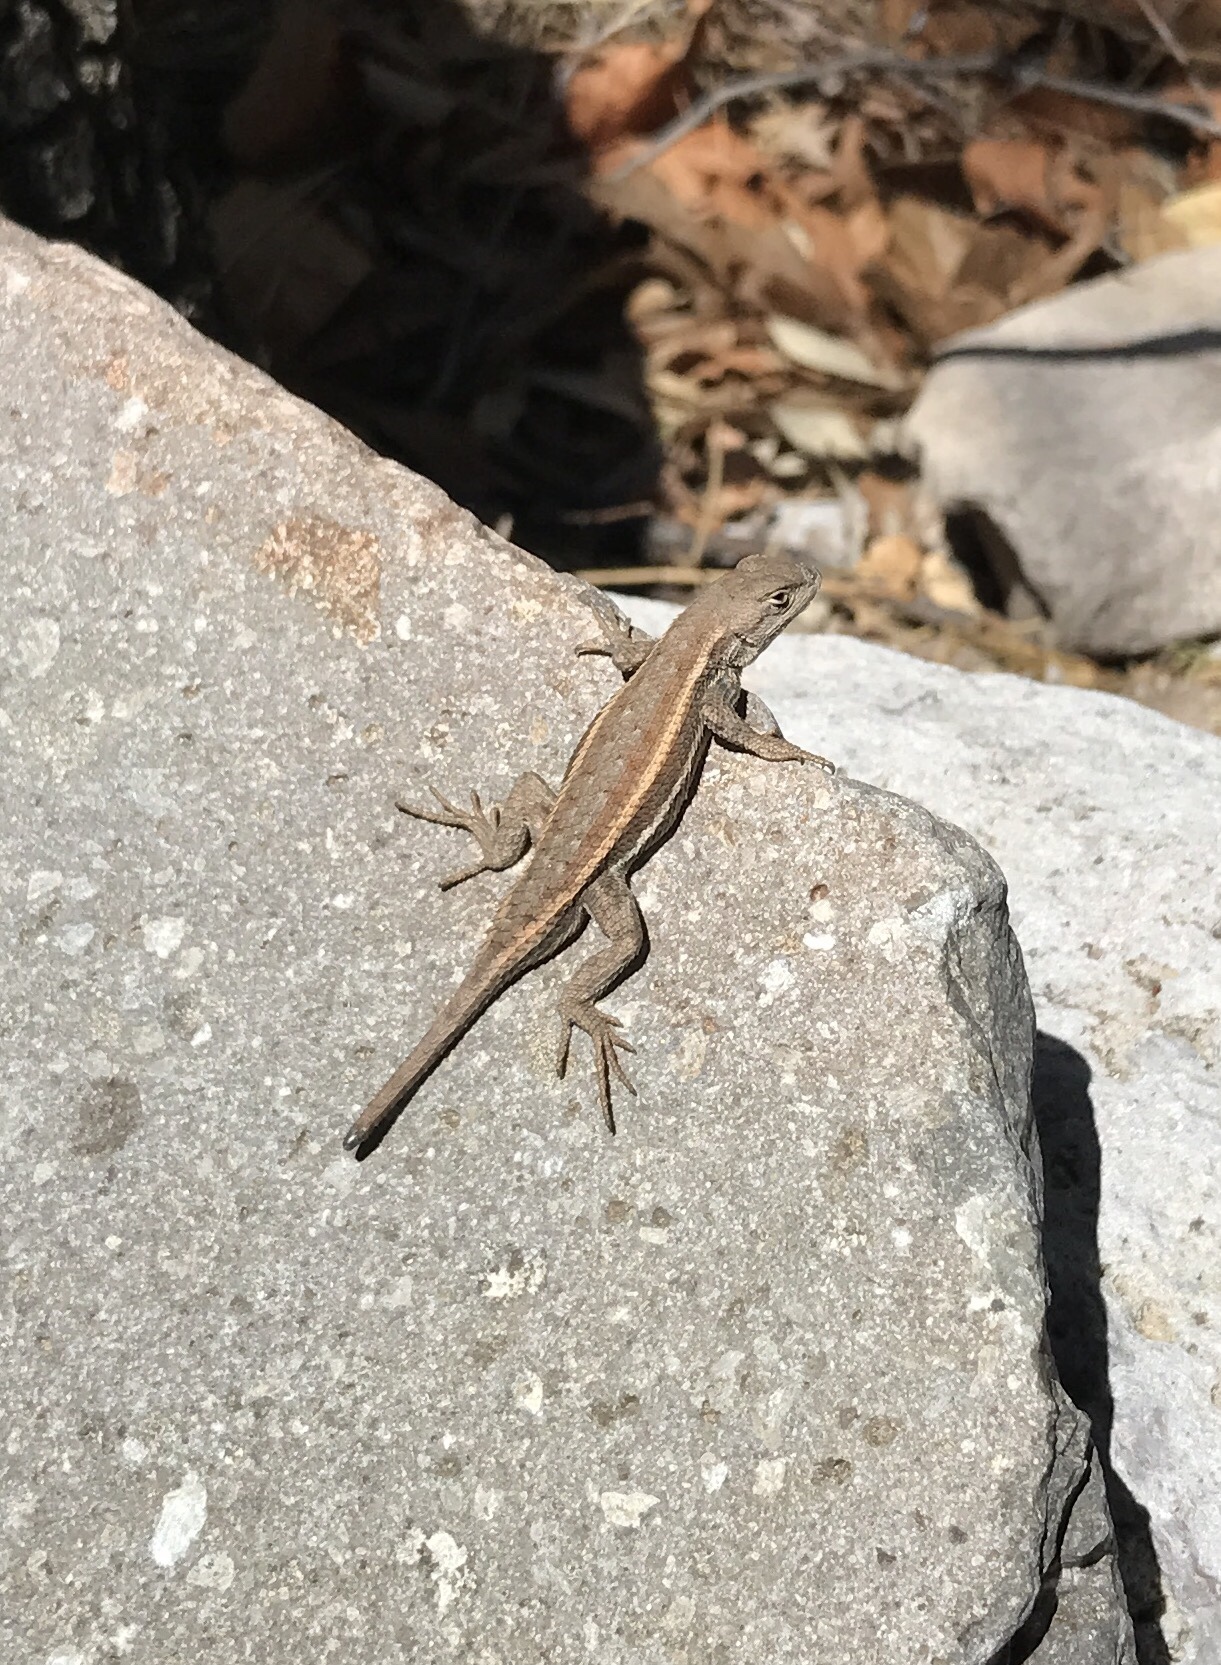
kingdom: Animalia
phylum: Chordata
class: Squamata
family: Phrynosomatidae
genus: Sceloporus
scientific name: Sceloporus virgatus
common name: Striped plateau lizard
